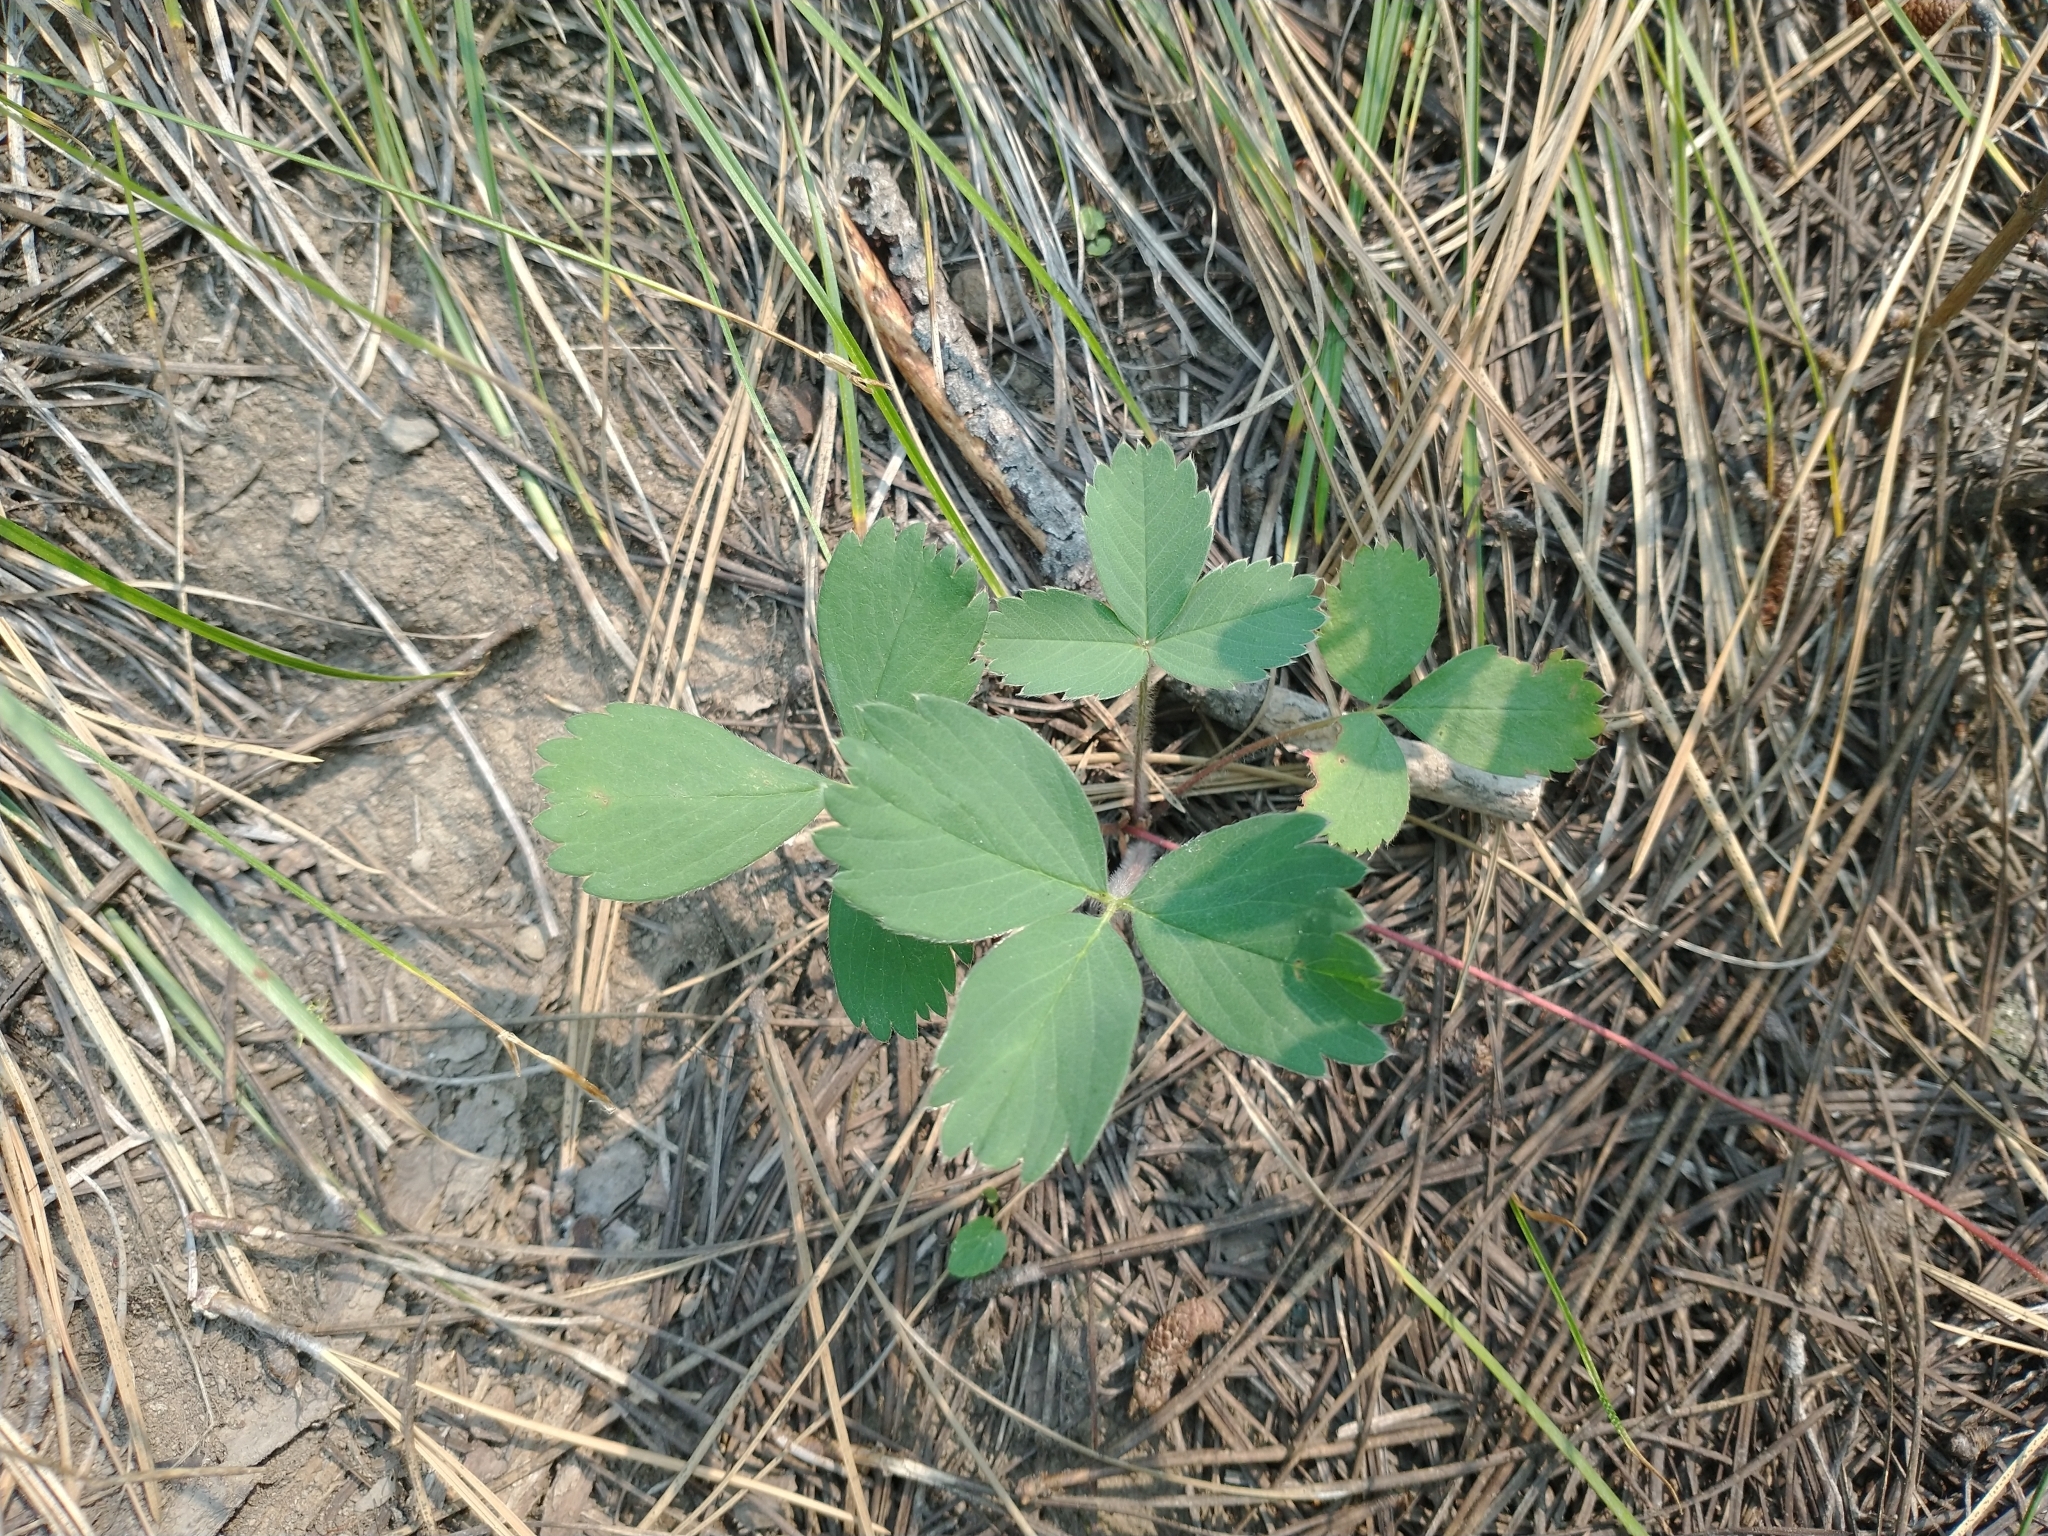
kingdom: Plantae
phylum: Tracheophyta
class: Magnoliopsida
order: Rosales
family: Rosaceae
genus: Fragaria
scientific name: Fragaria virginiana
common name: Thickleaved wild strawberry
